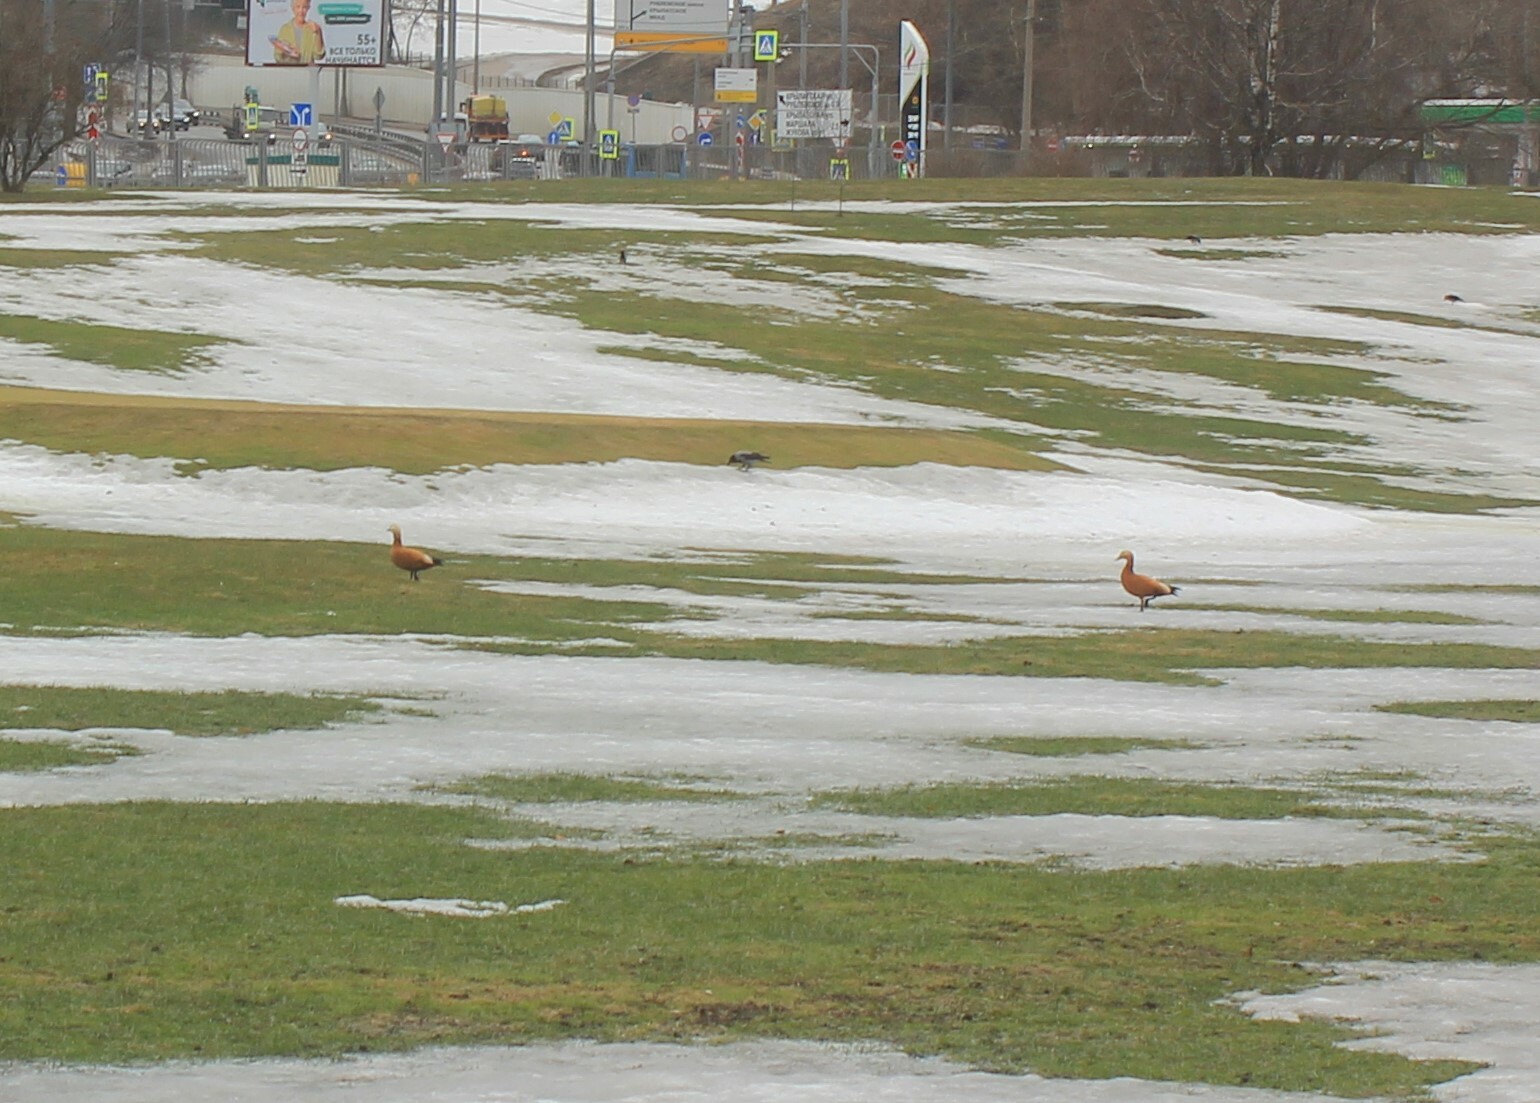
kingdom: Animalia
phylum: Chordata
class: Aves
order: Anseriformes
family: Anatidae
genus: Tadorna
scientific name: Tadorna ferruginea
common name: Ruddy shelduck
